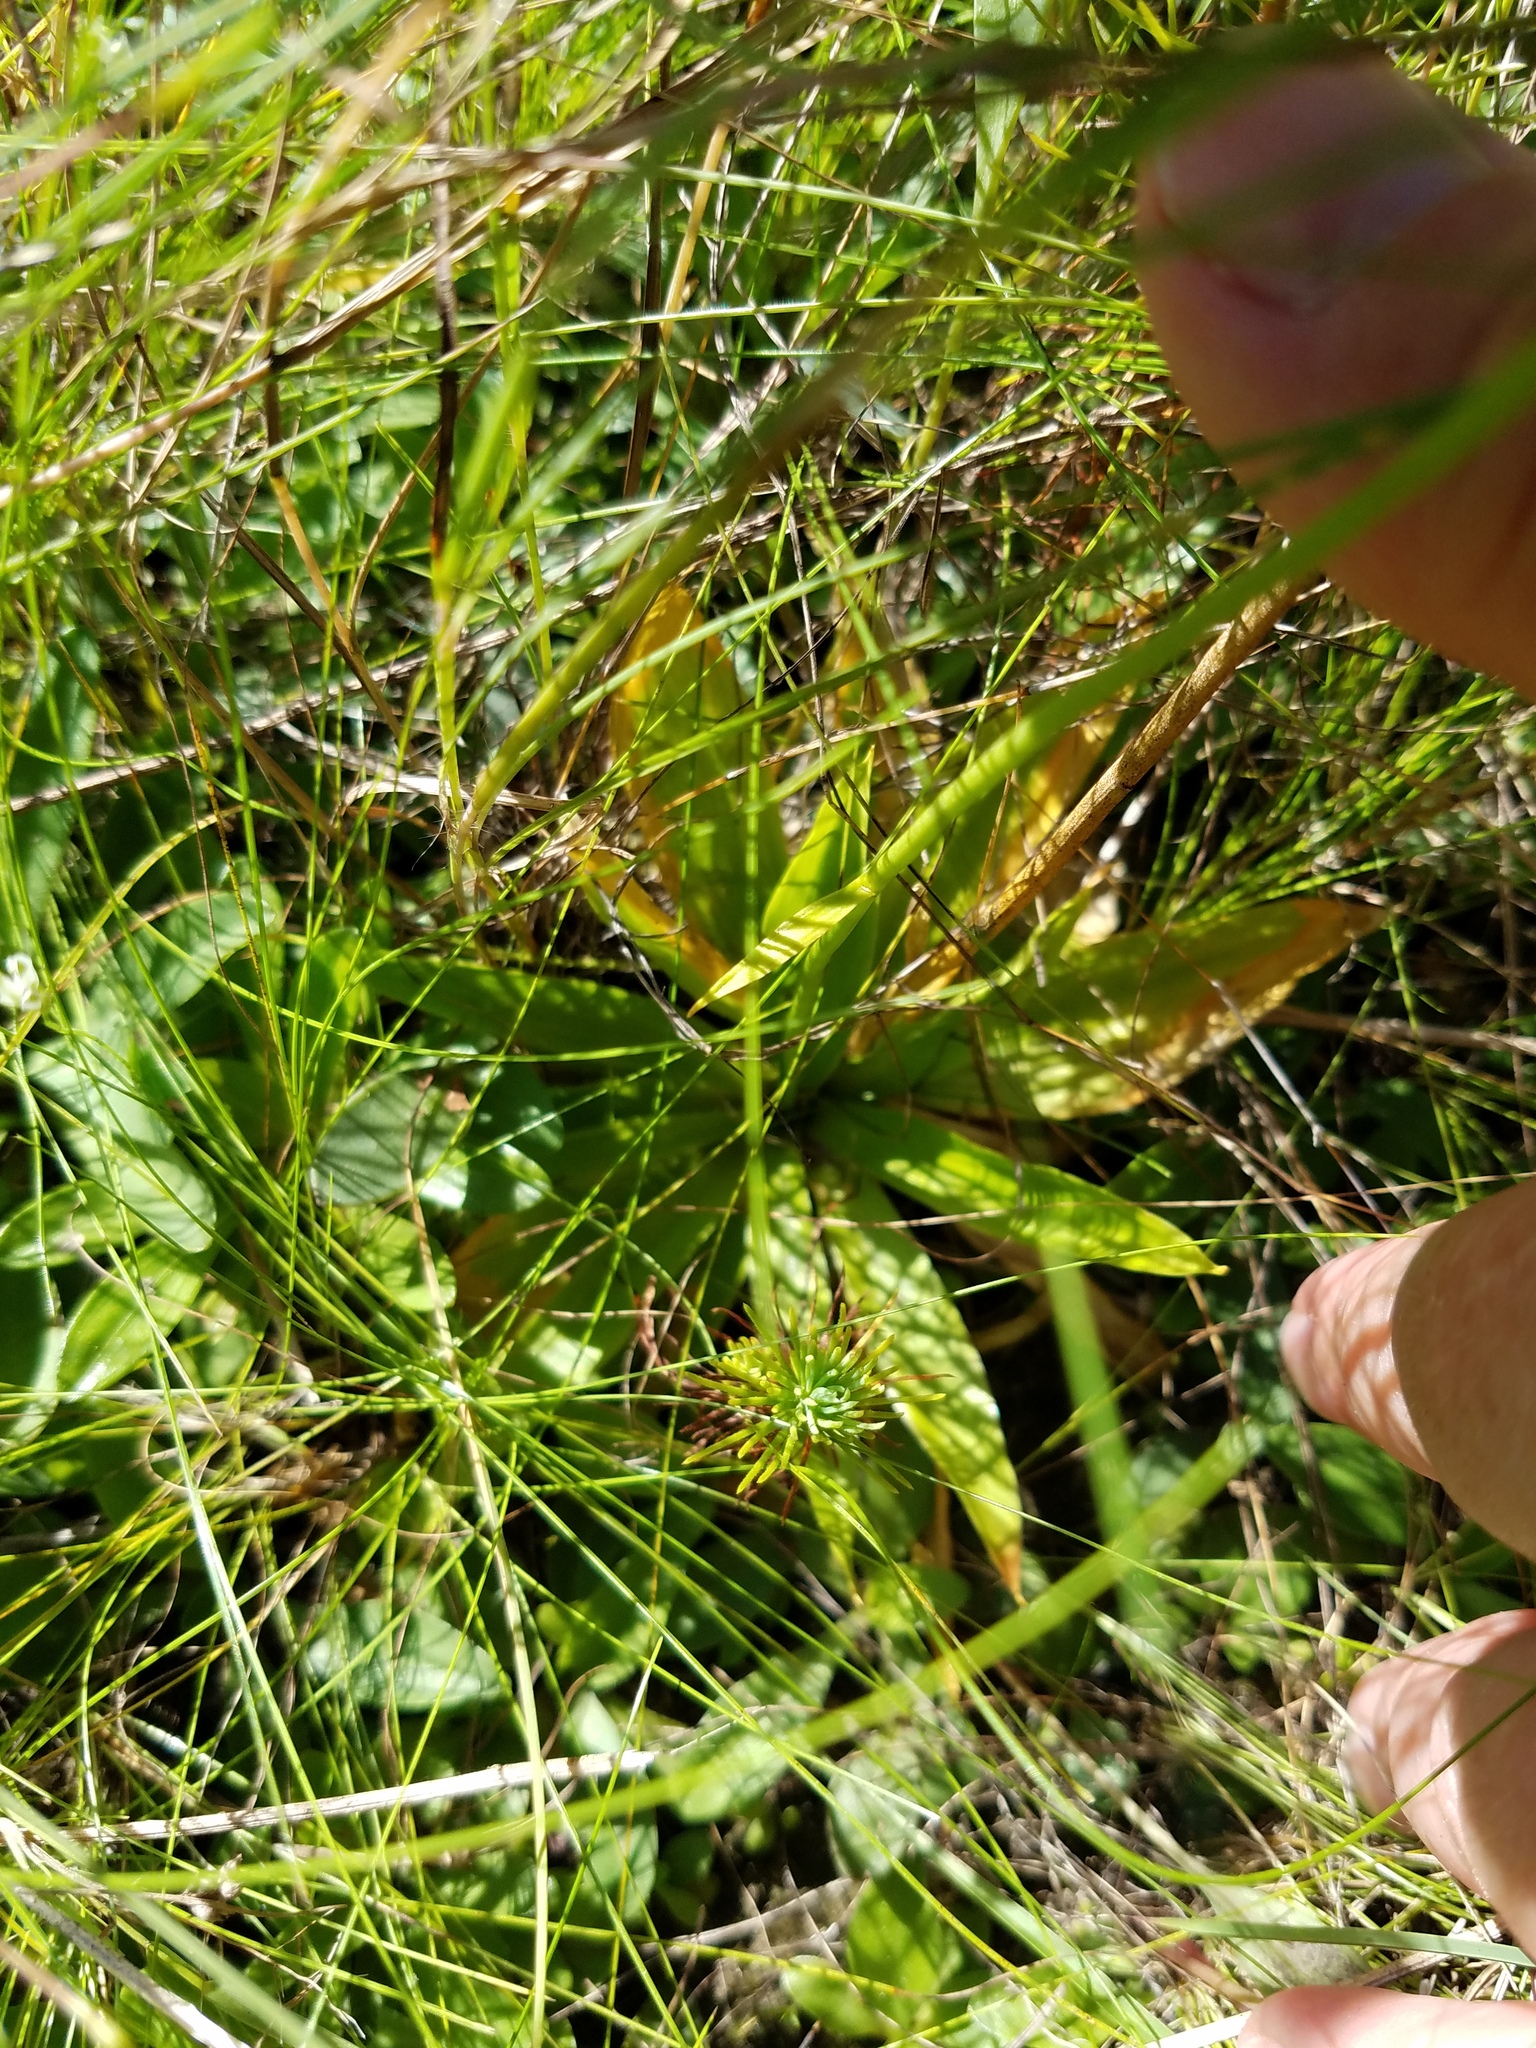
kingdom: Plantae
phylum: Tracheophyta
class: Liliopsida
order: Dioscoreales
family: Nartheciaceae
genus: Aletris
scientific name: Aletris aurea
